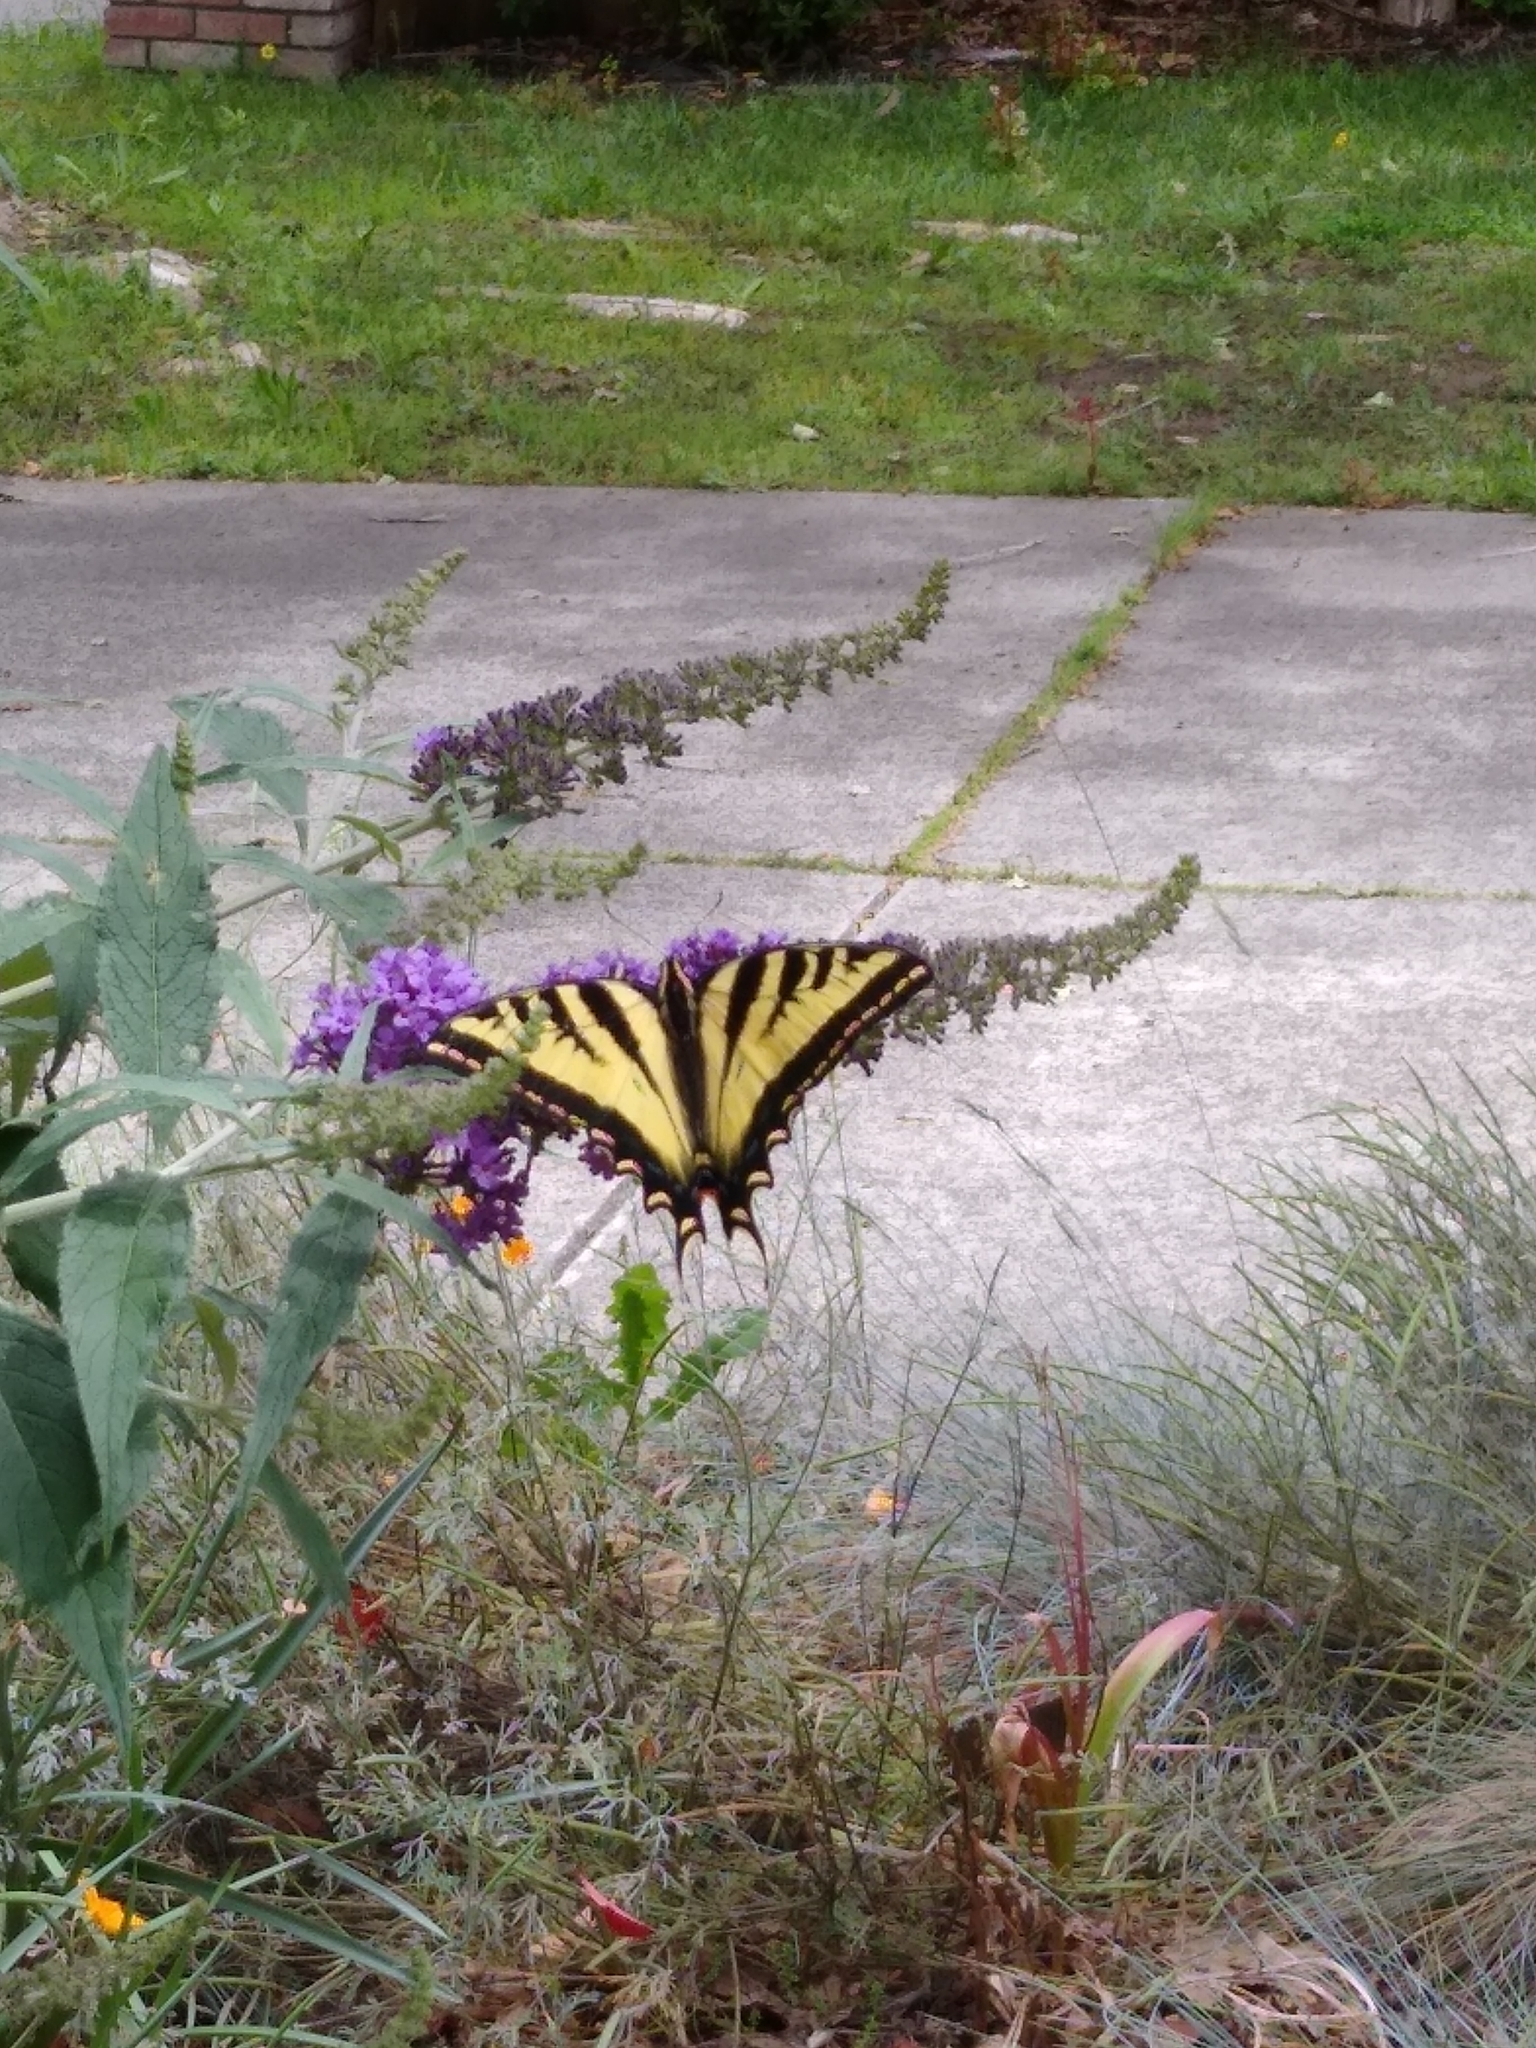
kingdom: Animalia
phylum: Arthropoda
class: Insecta
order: Lepidoptera
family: Papilionidae
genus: Papilio
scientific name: Papilio rutulus
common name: Western tiger swallowtail
